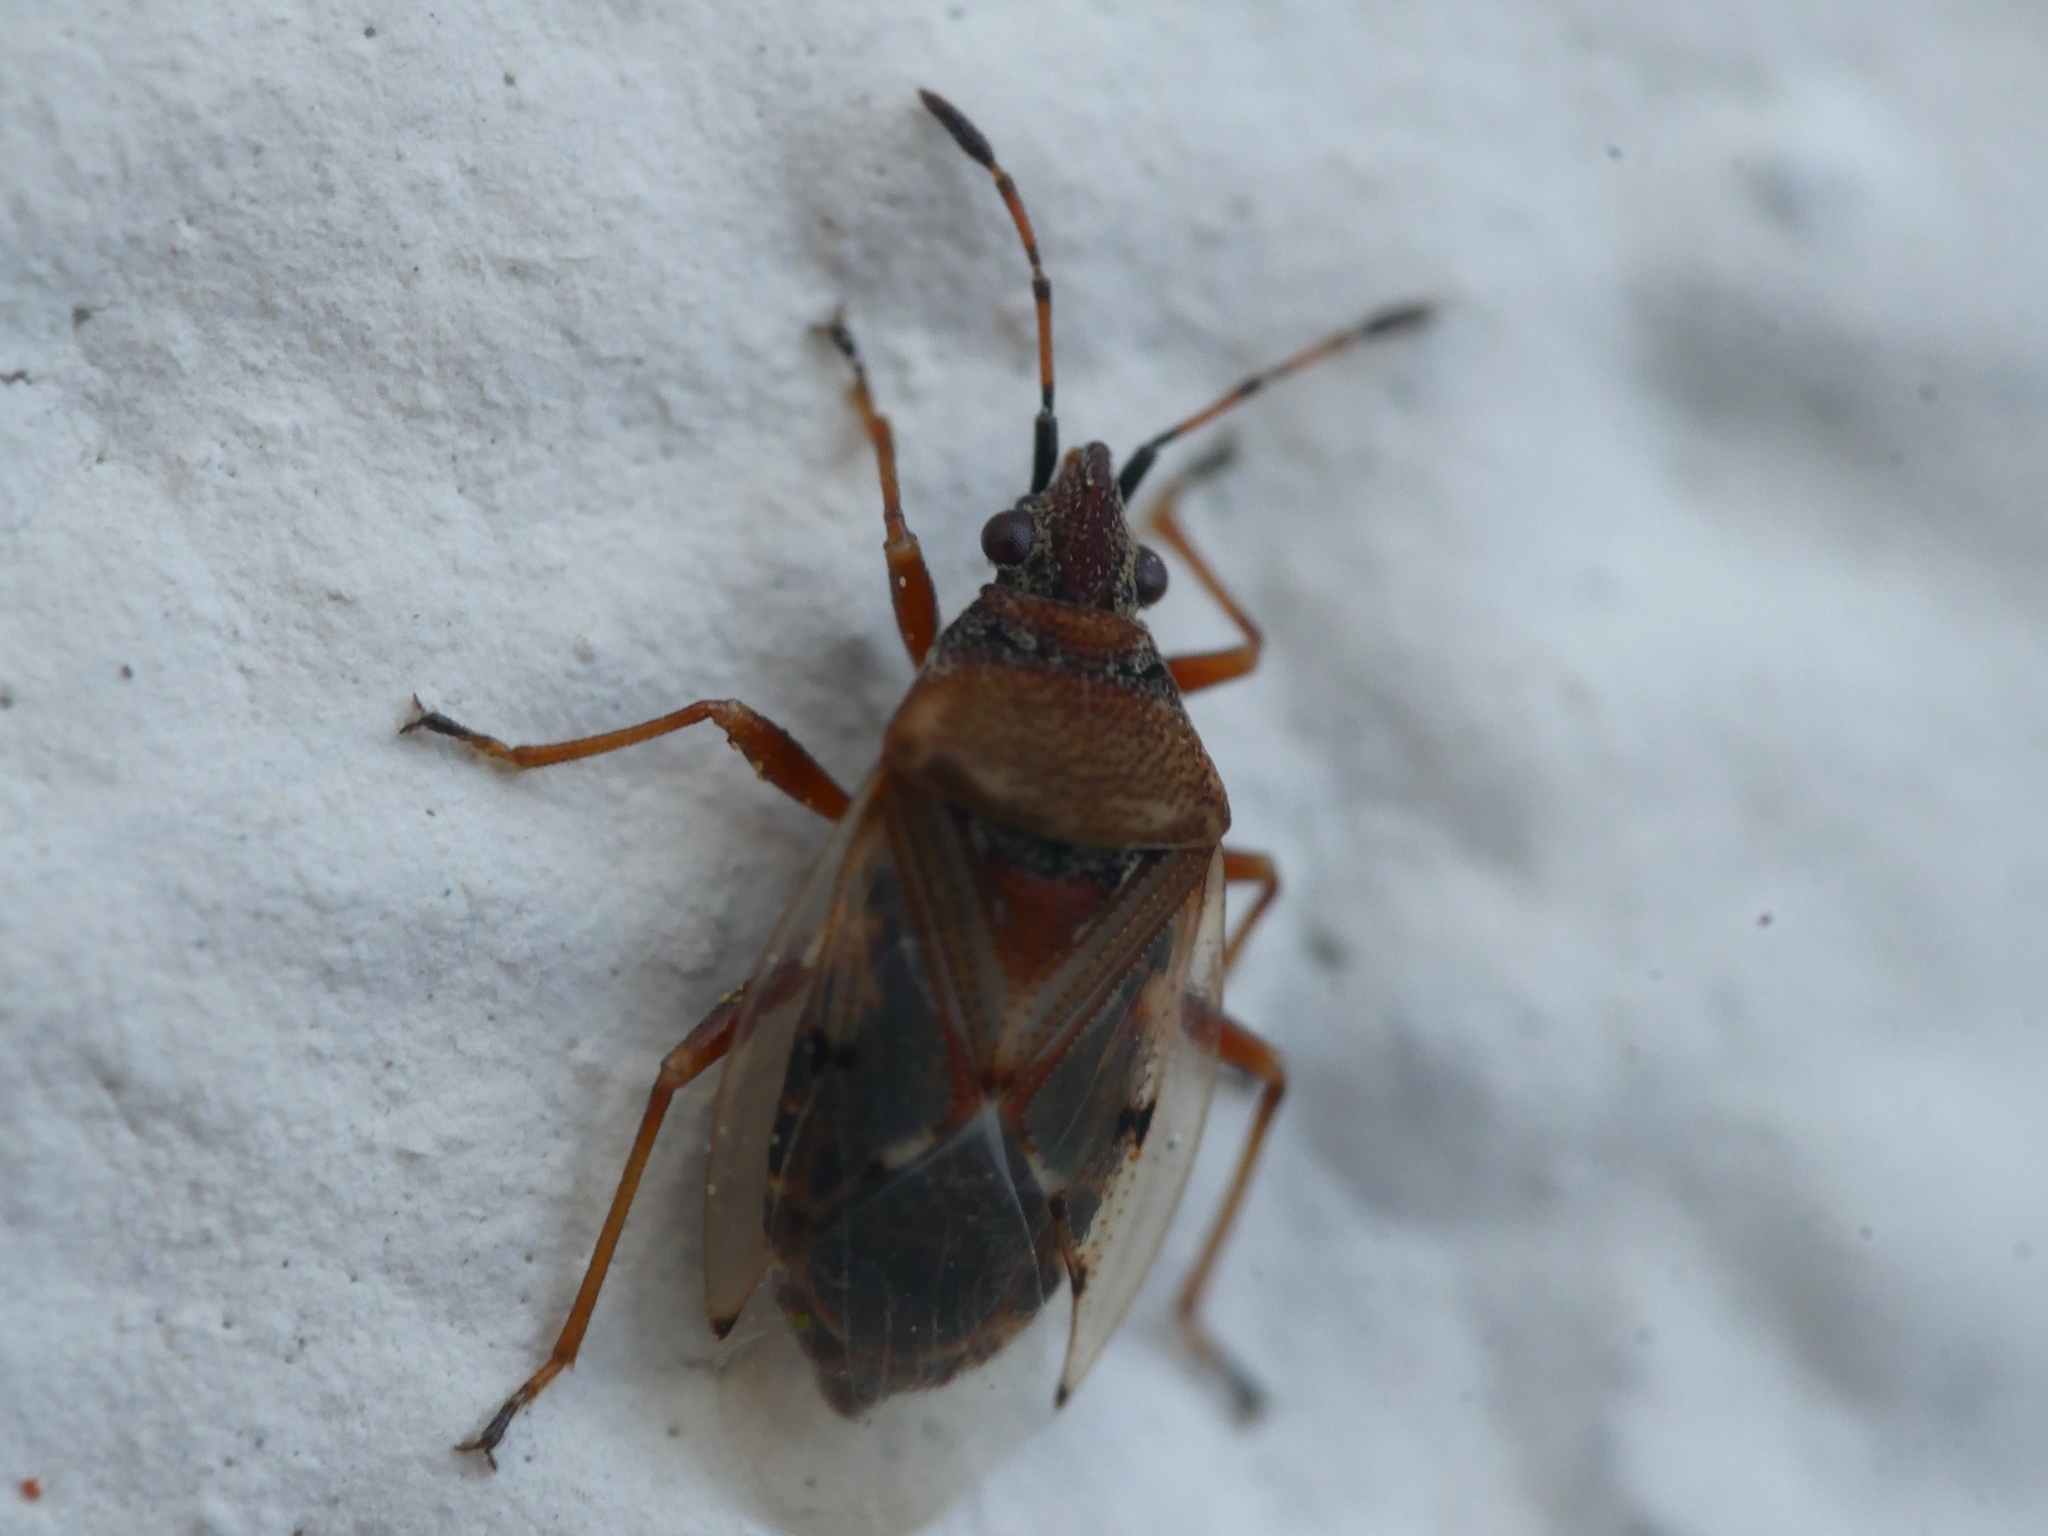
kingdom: Animalia
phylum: Arthropoda
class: Insecta
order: Hemiptera
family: Lygaeidae
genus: Kleidocerys
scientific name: Kleidocerys resedae
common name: Birch catkin bug
